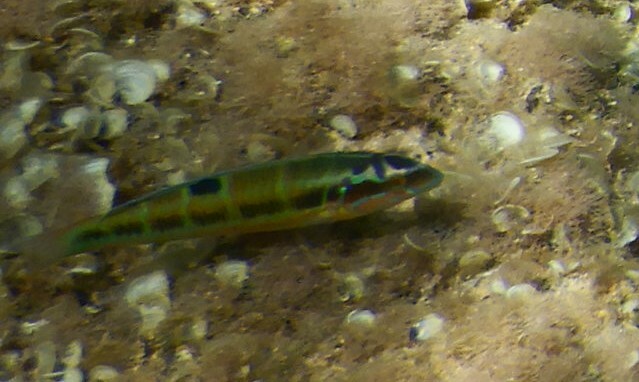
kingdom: Animalia
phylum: Chordata
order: Perciformes
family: Labridae
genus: Thalassoma
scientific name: Thalassoma pavo
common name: Ornate wrasse
